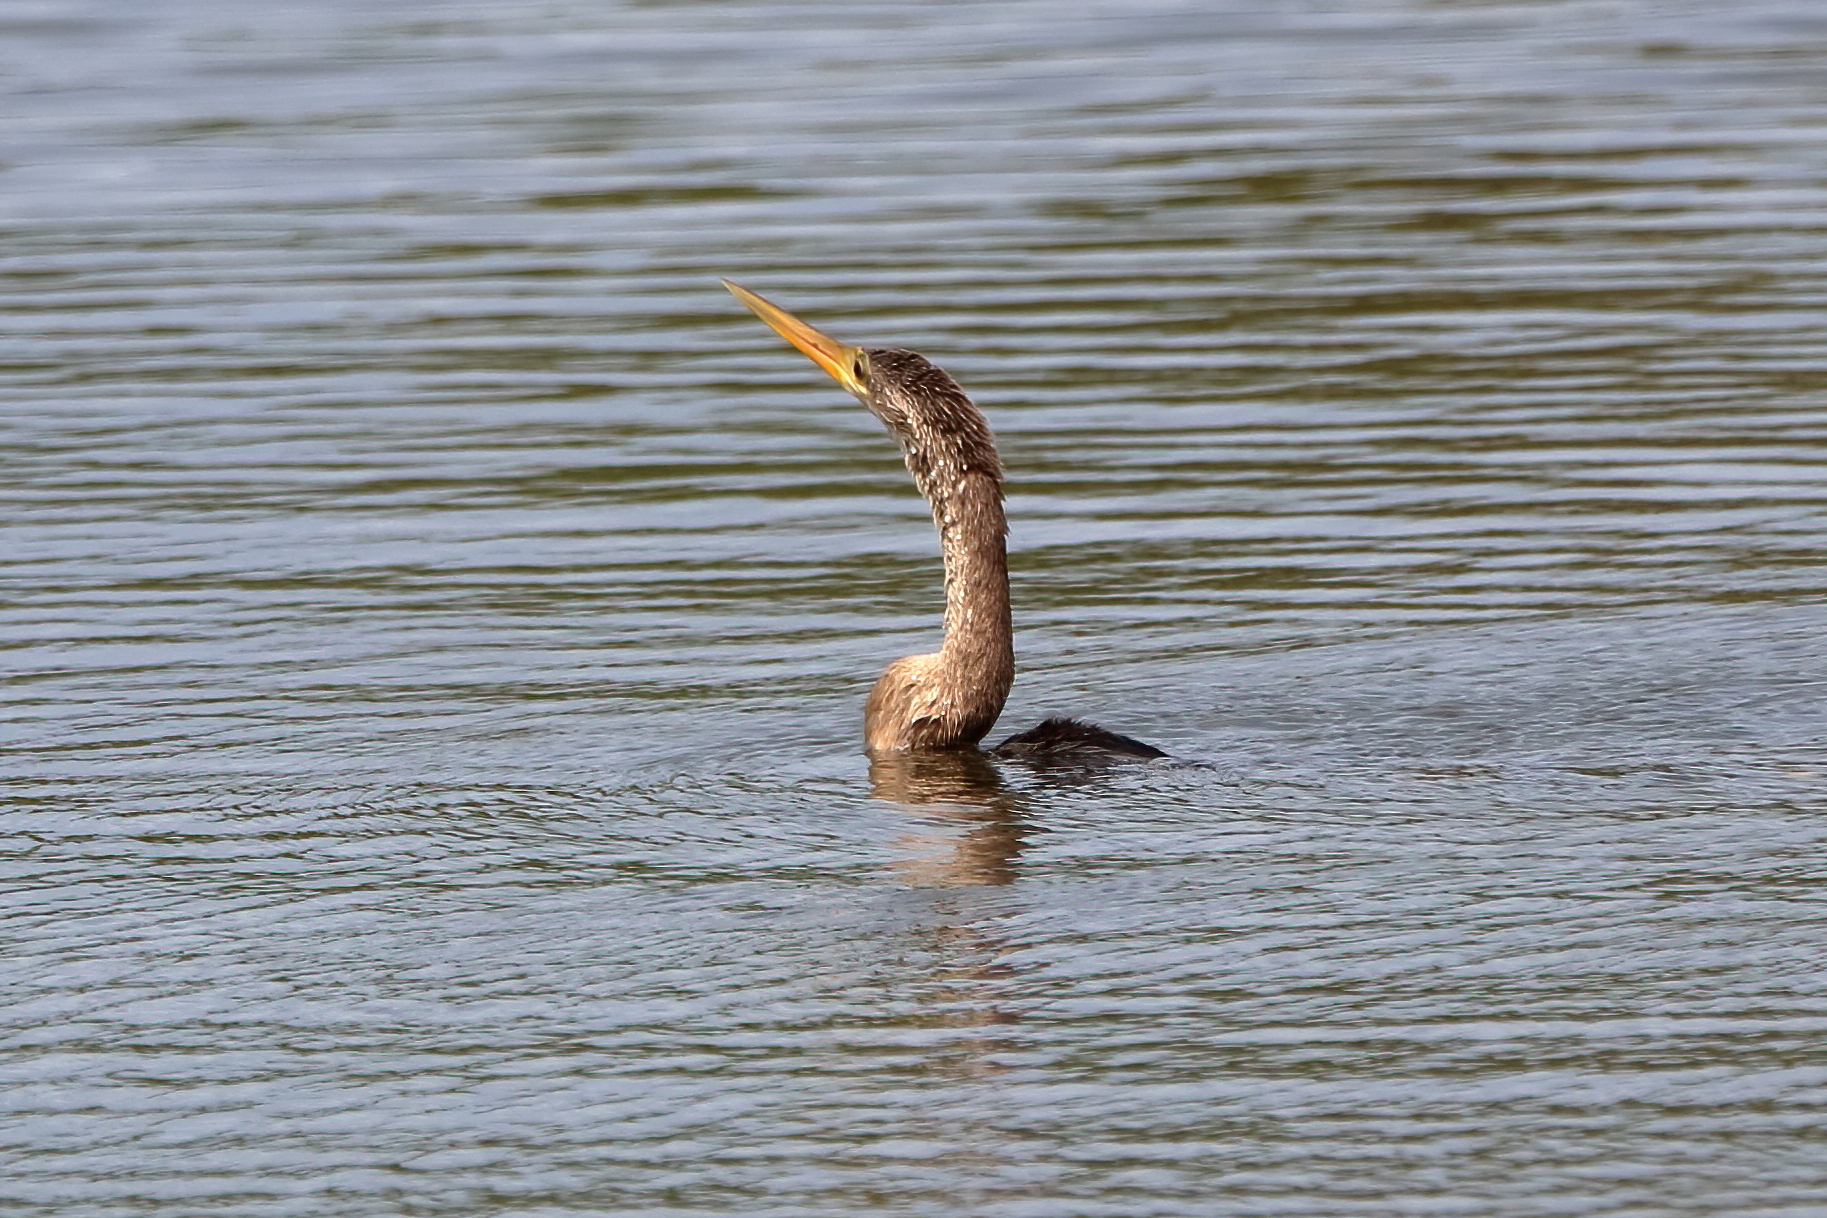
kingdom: Animalia
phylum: Chordata
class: Aves
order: Suliformes
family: Anhingidae
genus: Anhinga
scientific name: Anhinga anhinga
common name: Anhinga
